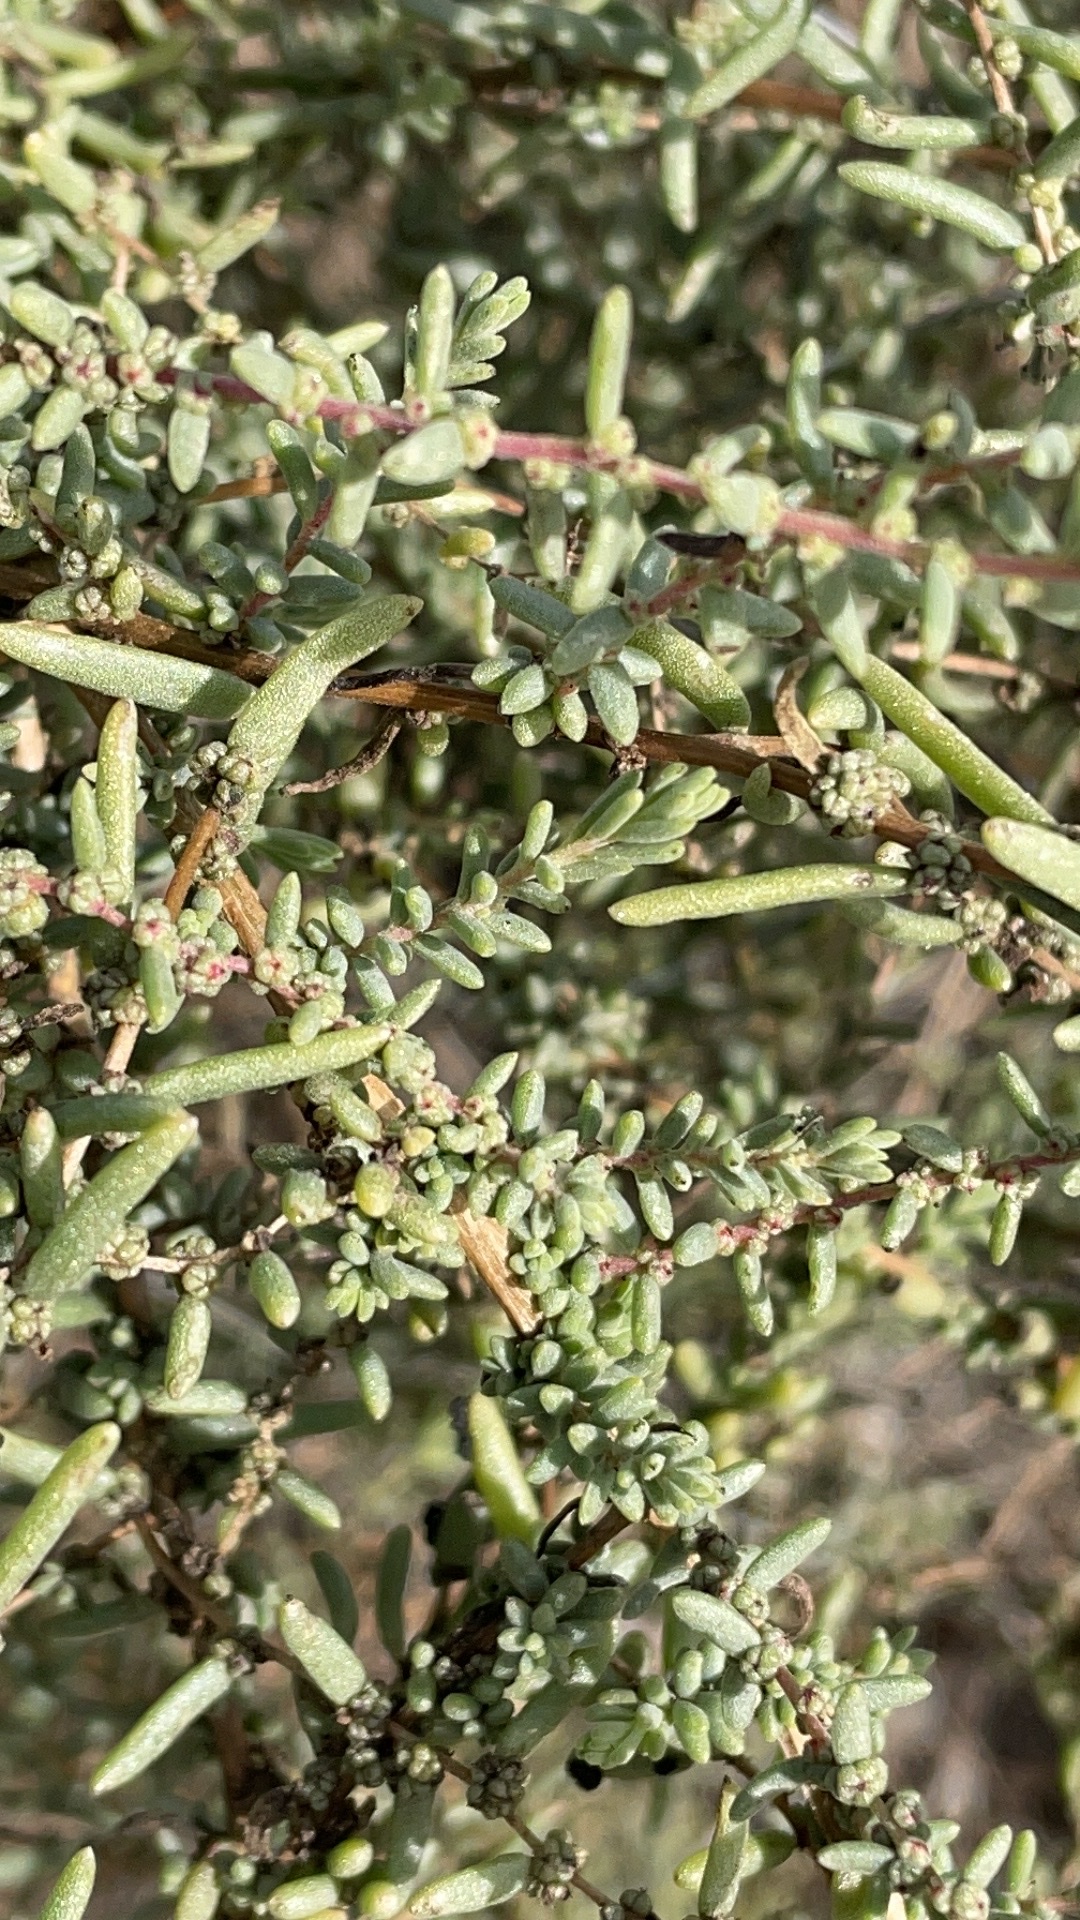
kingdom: Plantae
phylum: Tracheophyta
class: Magnoliopsida
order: Caryophyllales
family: Amaranthaceae
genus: Suaeda
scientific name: Suaeda nigra
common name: Bush seepweed
